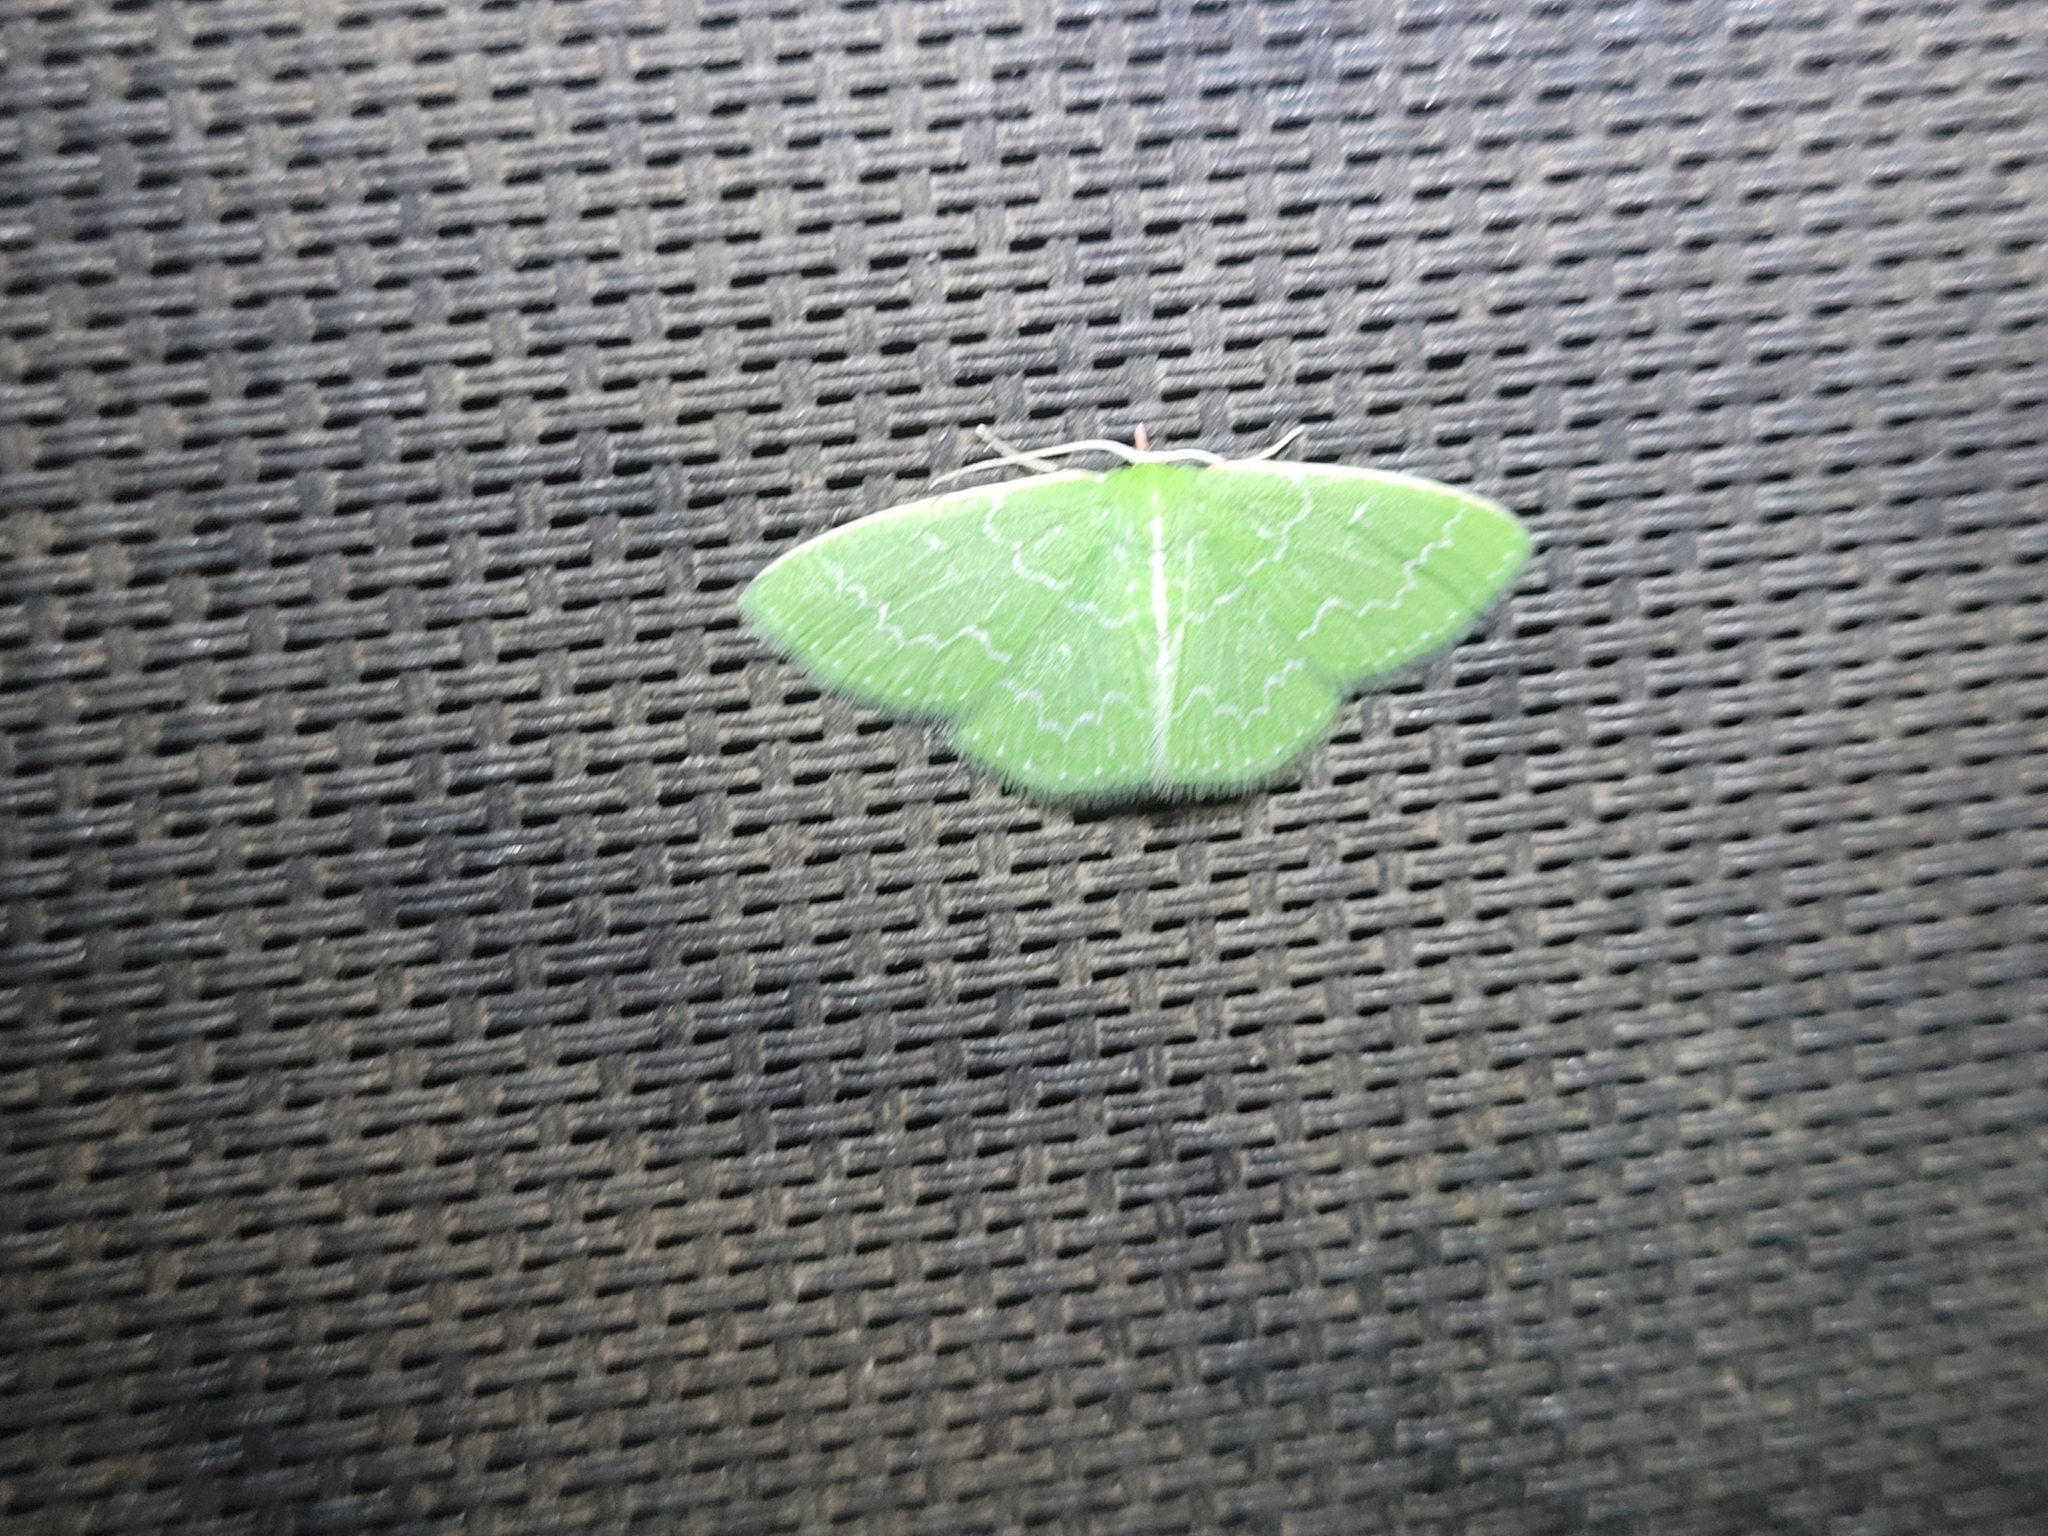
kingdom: Animalia
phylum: Arthropoda
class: Insecta
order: Lepidoptera
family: Geometridae
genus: Synchlora
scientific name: Synchlora frondaria
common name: Southern emerald
